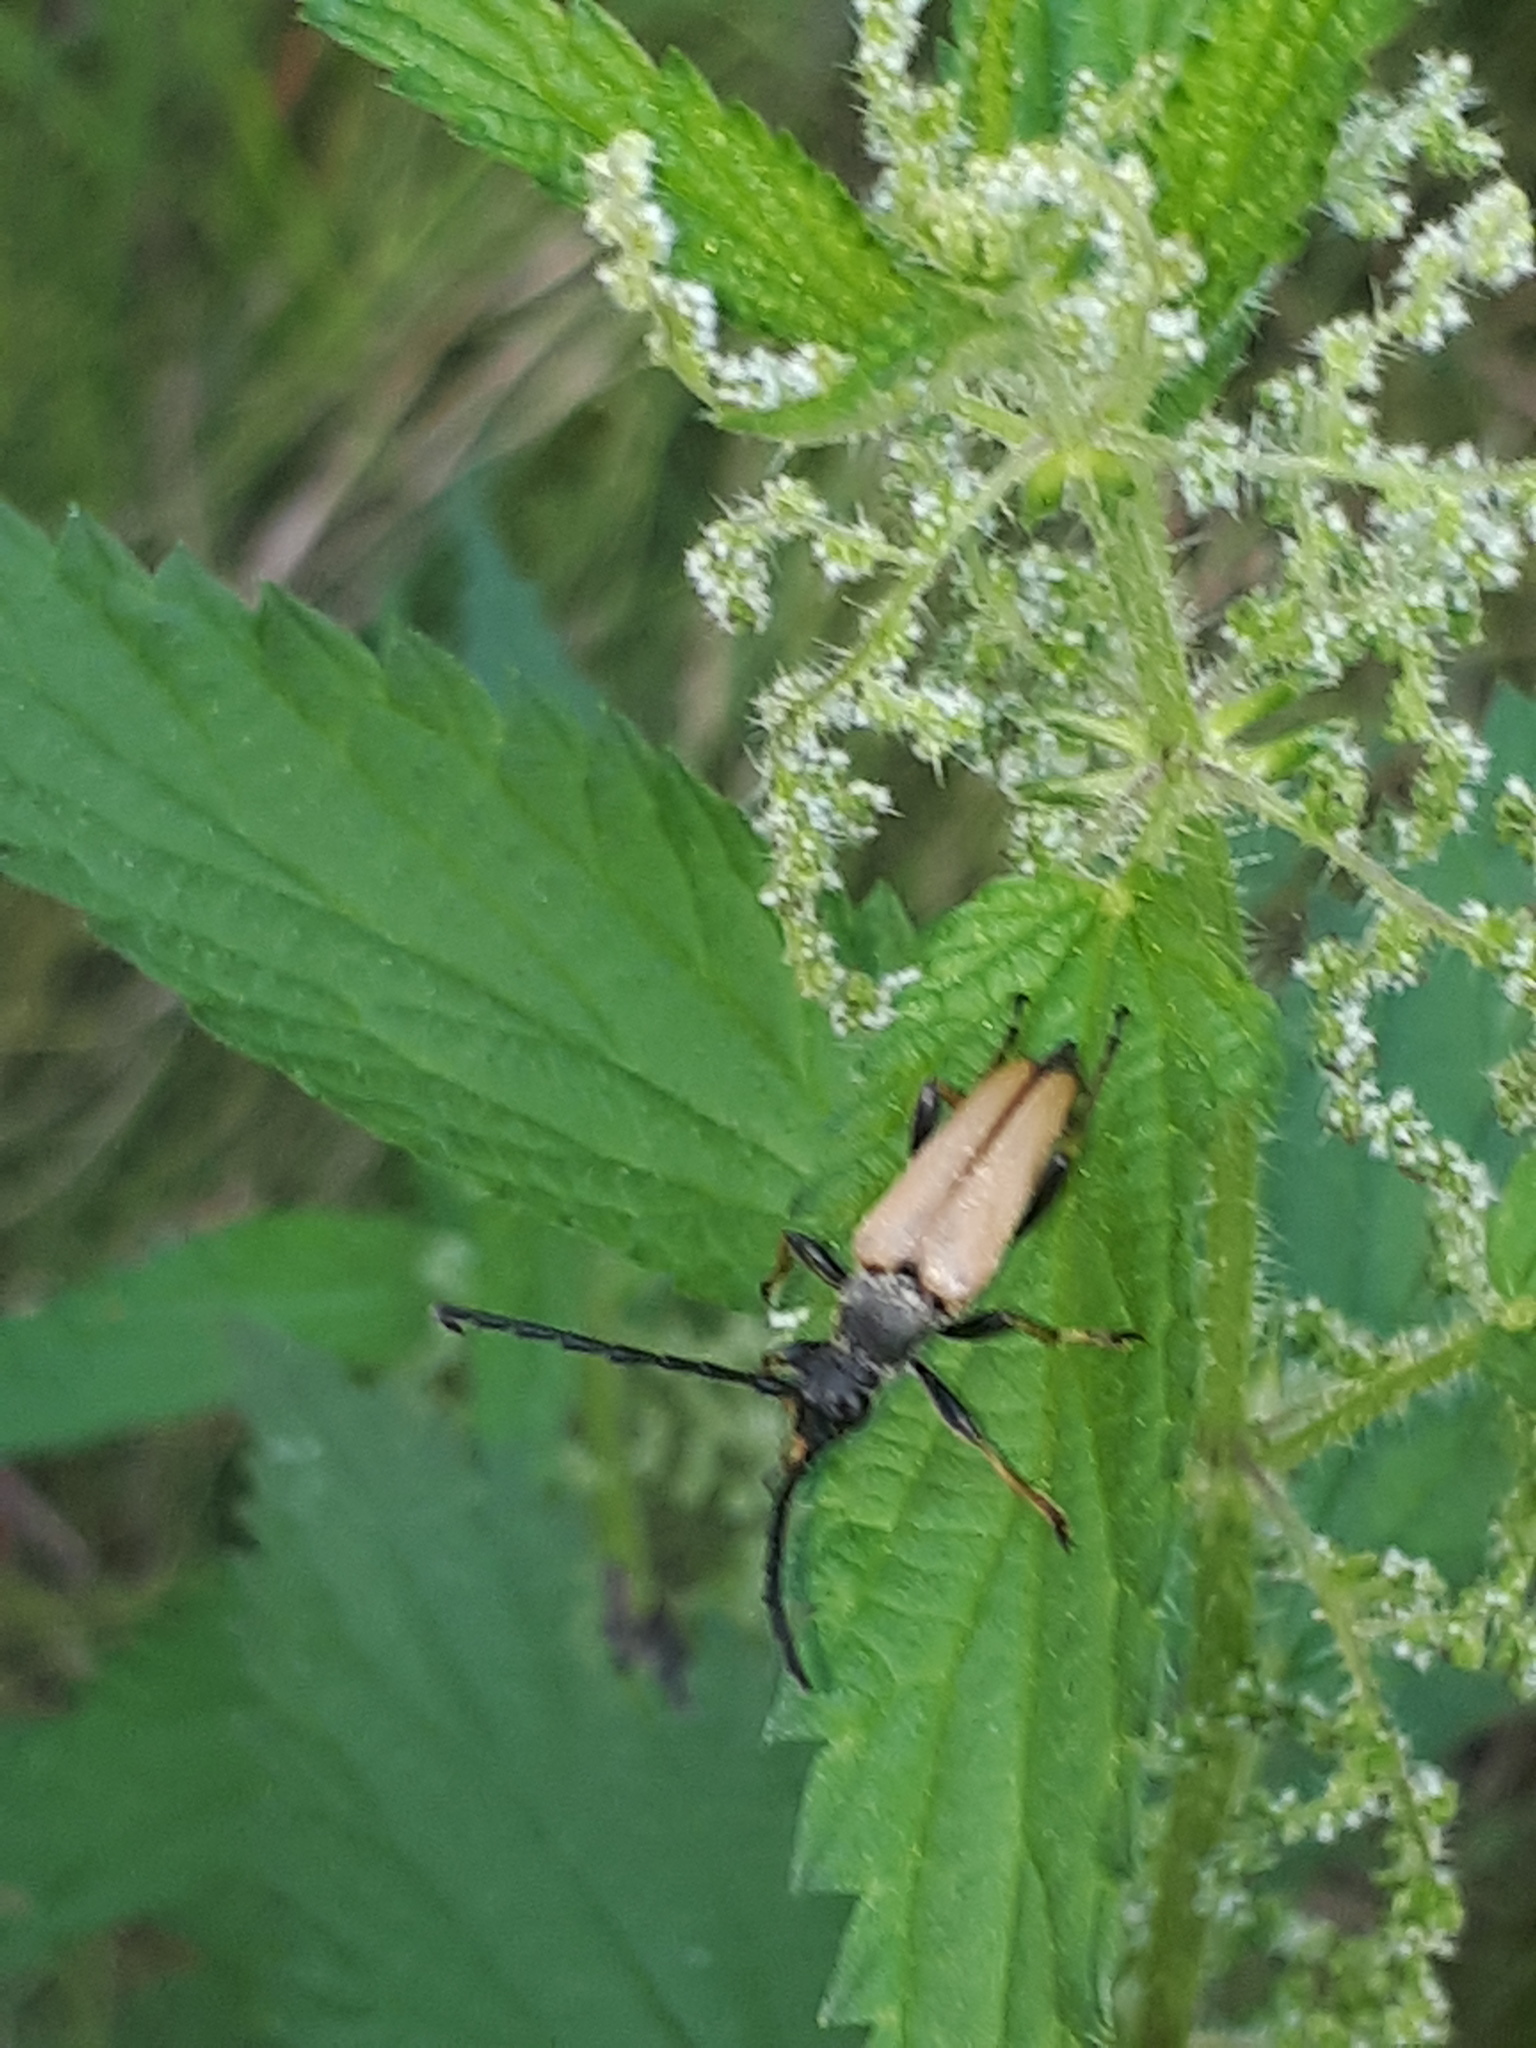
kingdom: Animalia
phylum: Arthropoda
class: Insecta
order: Coleoptera
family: Cerambycidae
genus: Stictoleptura
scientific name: Stictoleptura rubra
